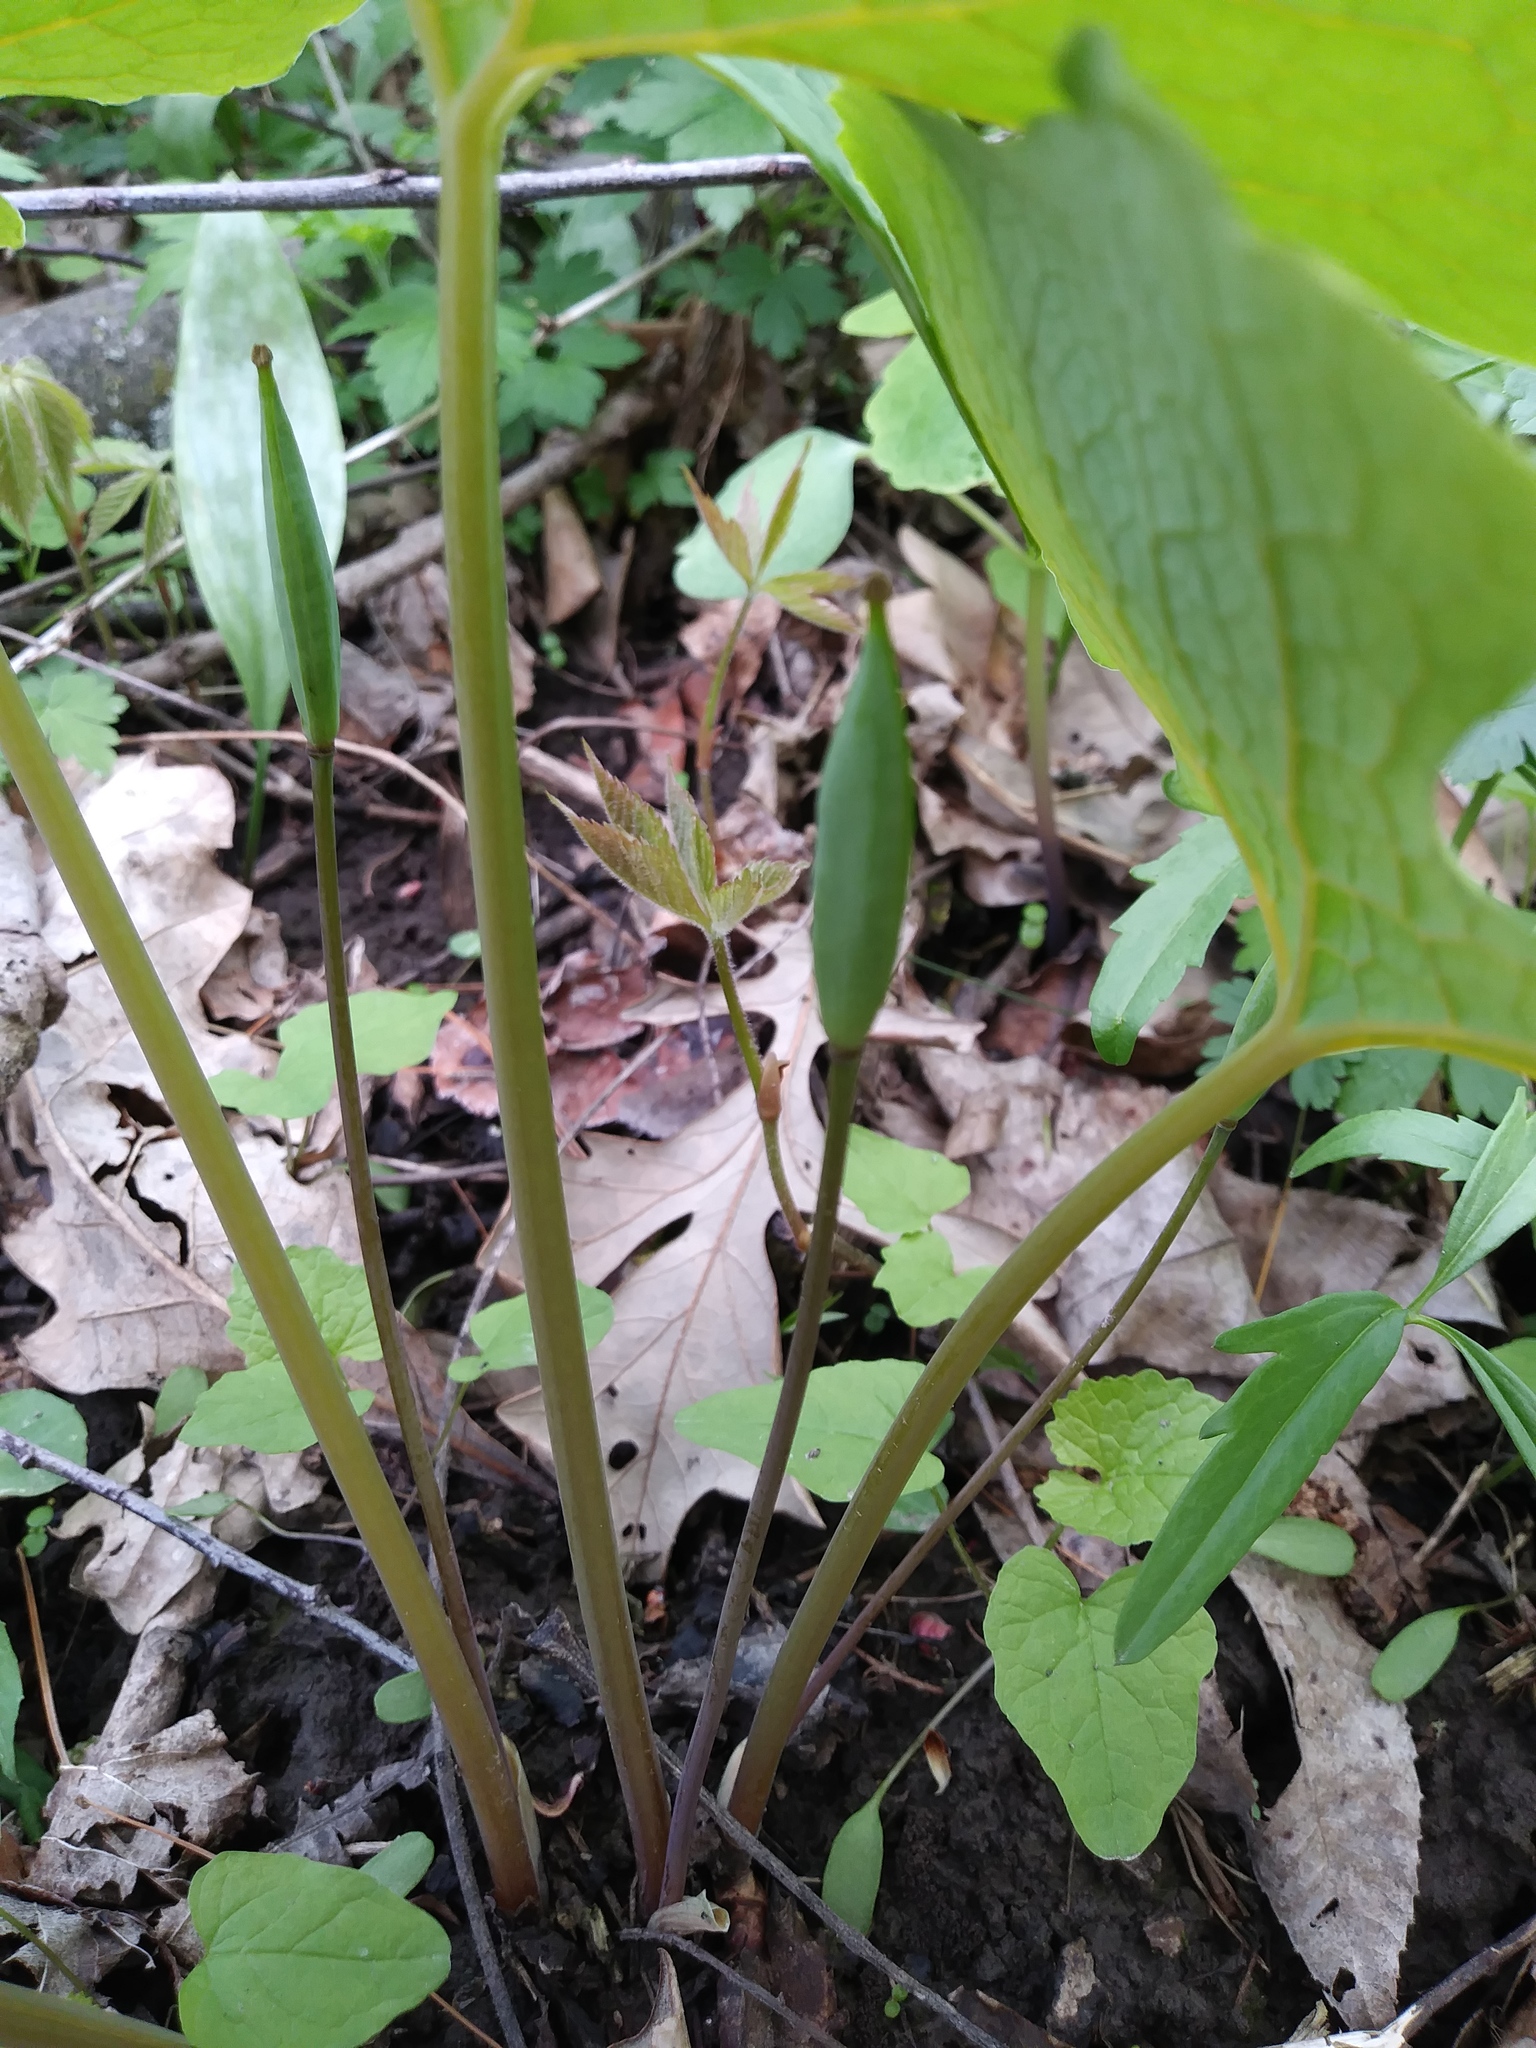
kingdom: Plantae
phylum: Tracheophyta
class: Magnoliopsida
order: Ranunculales
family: Papaveraceae
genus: Sanguinaria
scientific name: Sanguinaria canadensis
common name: Bloodroot
